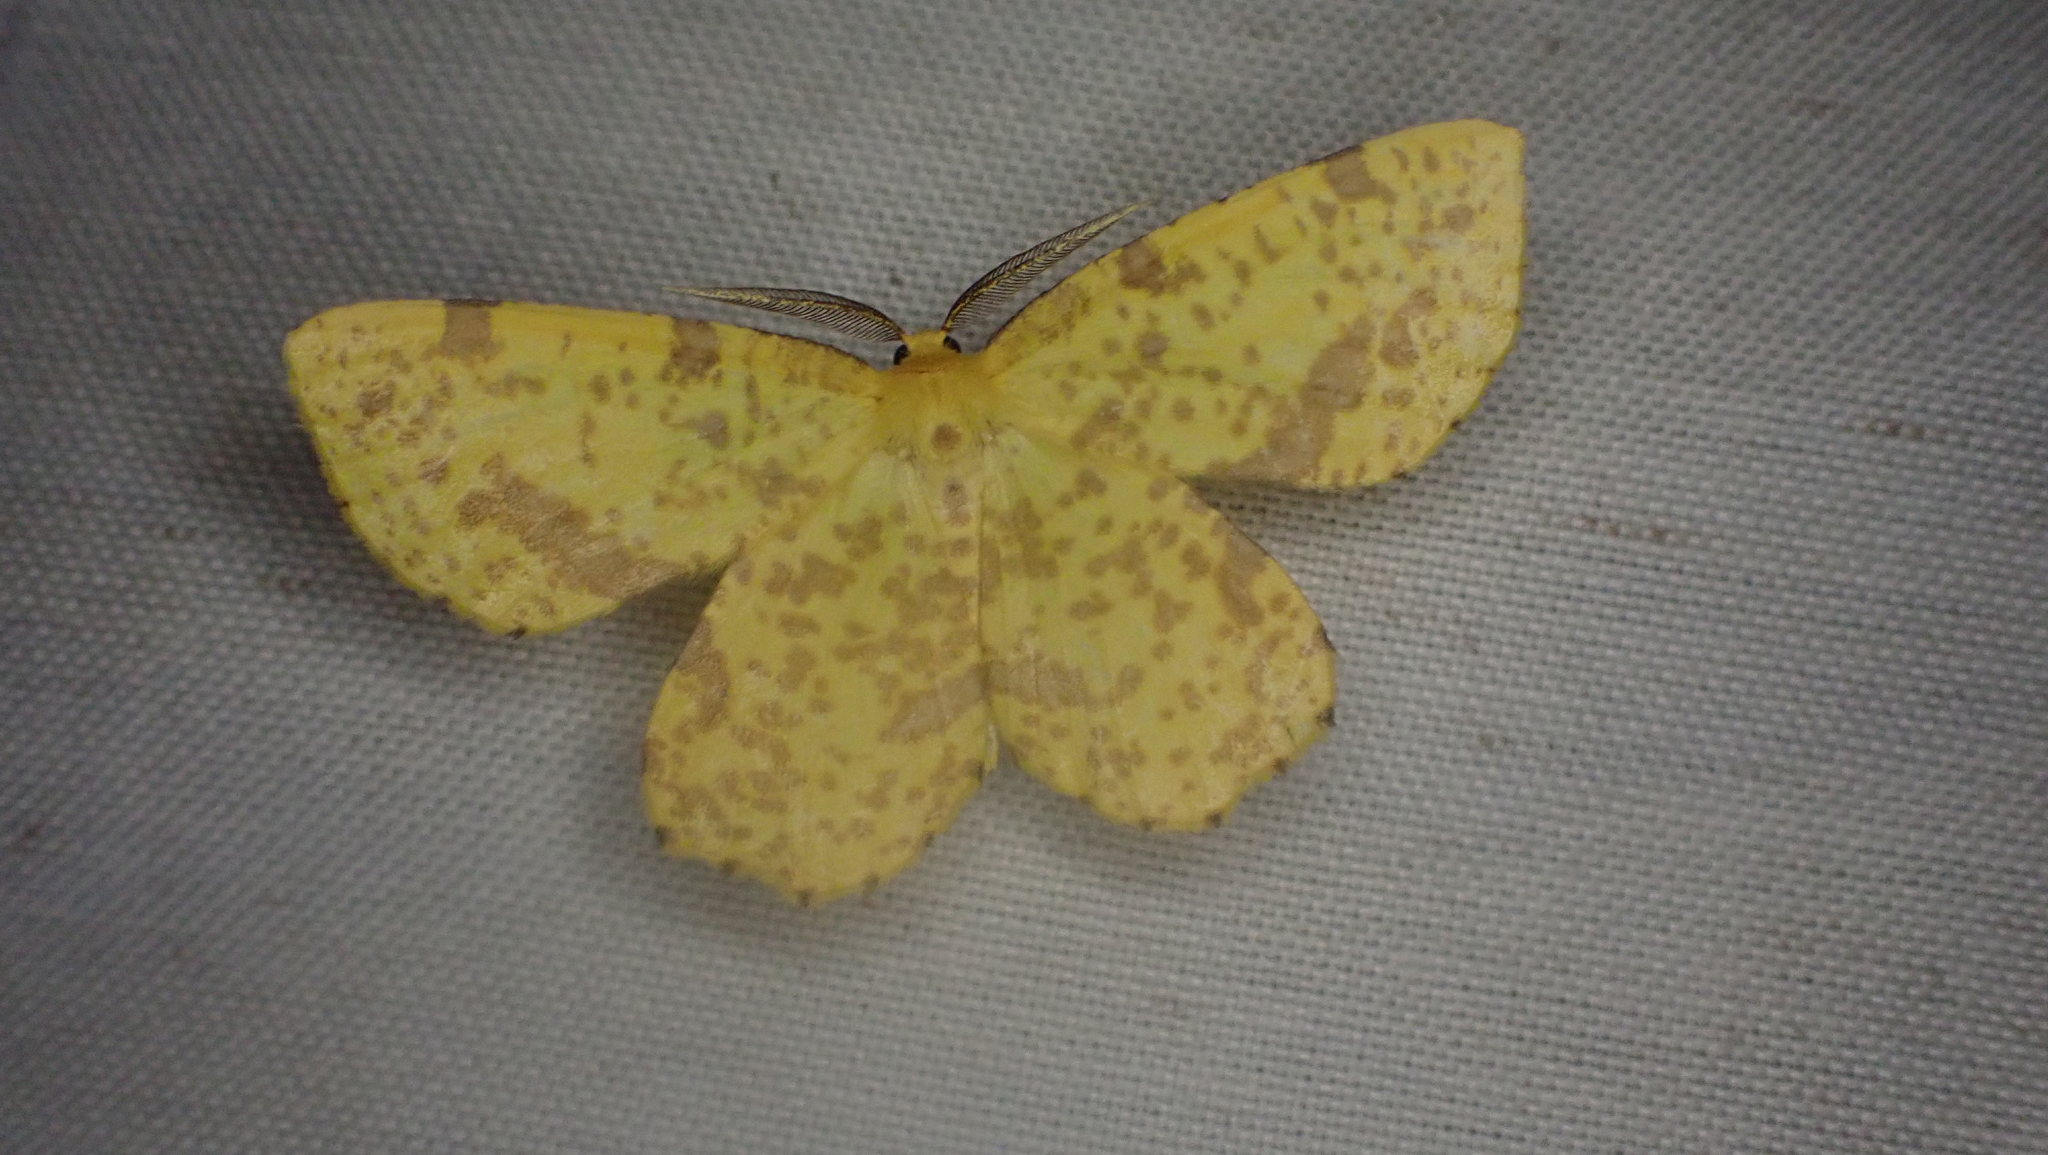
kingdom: Animalia
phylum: Arthropoda
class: Insecta
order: Lepidoptera
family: Geometridae
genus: Xanthotype
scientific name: Xanthotype
